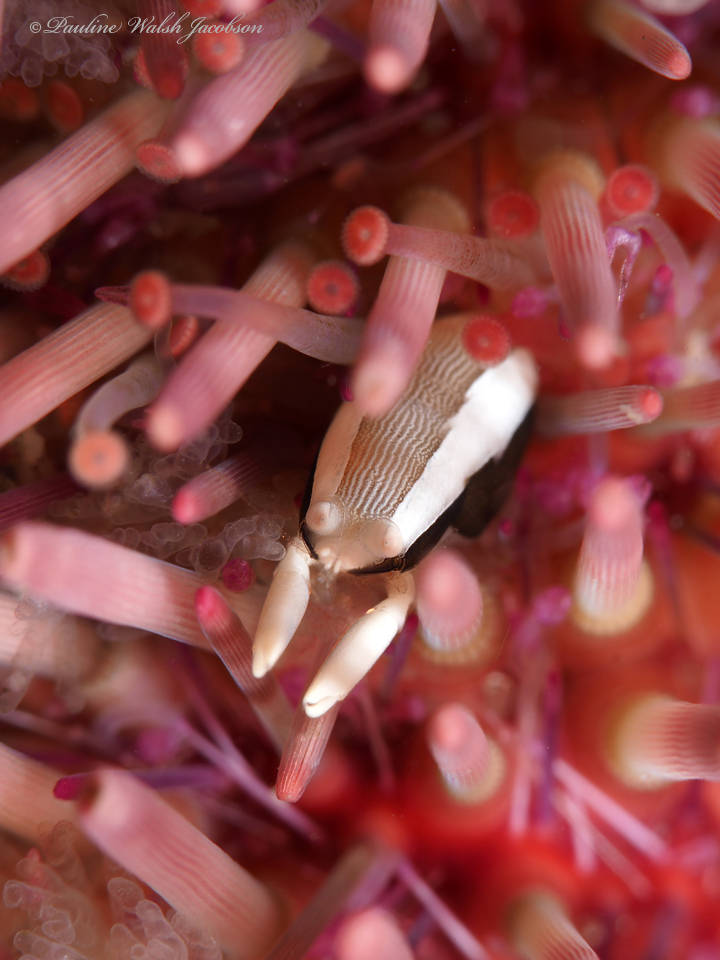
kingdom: Animalia
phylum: Arthropoda
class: Malacostraca
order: Decapoda
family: Palaemonidae
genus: Gnathophylloides
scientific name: Gnathophylloides mineri
